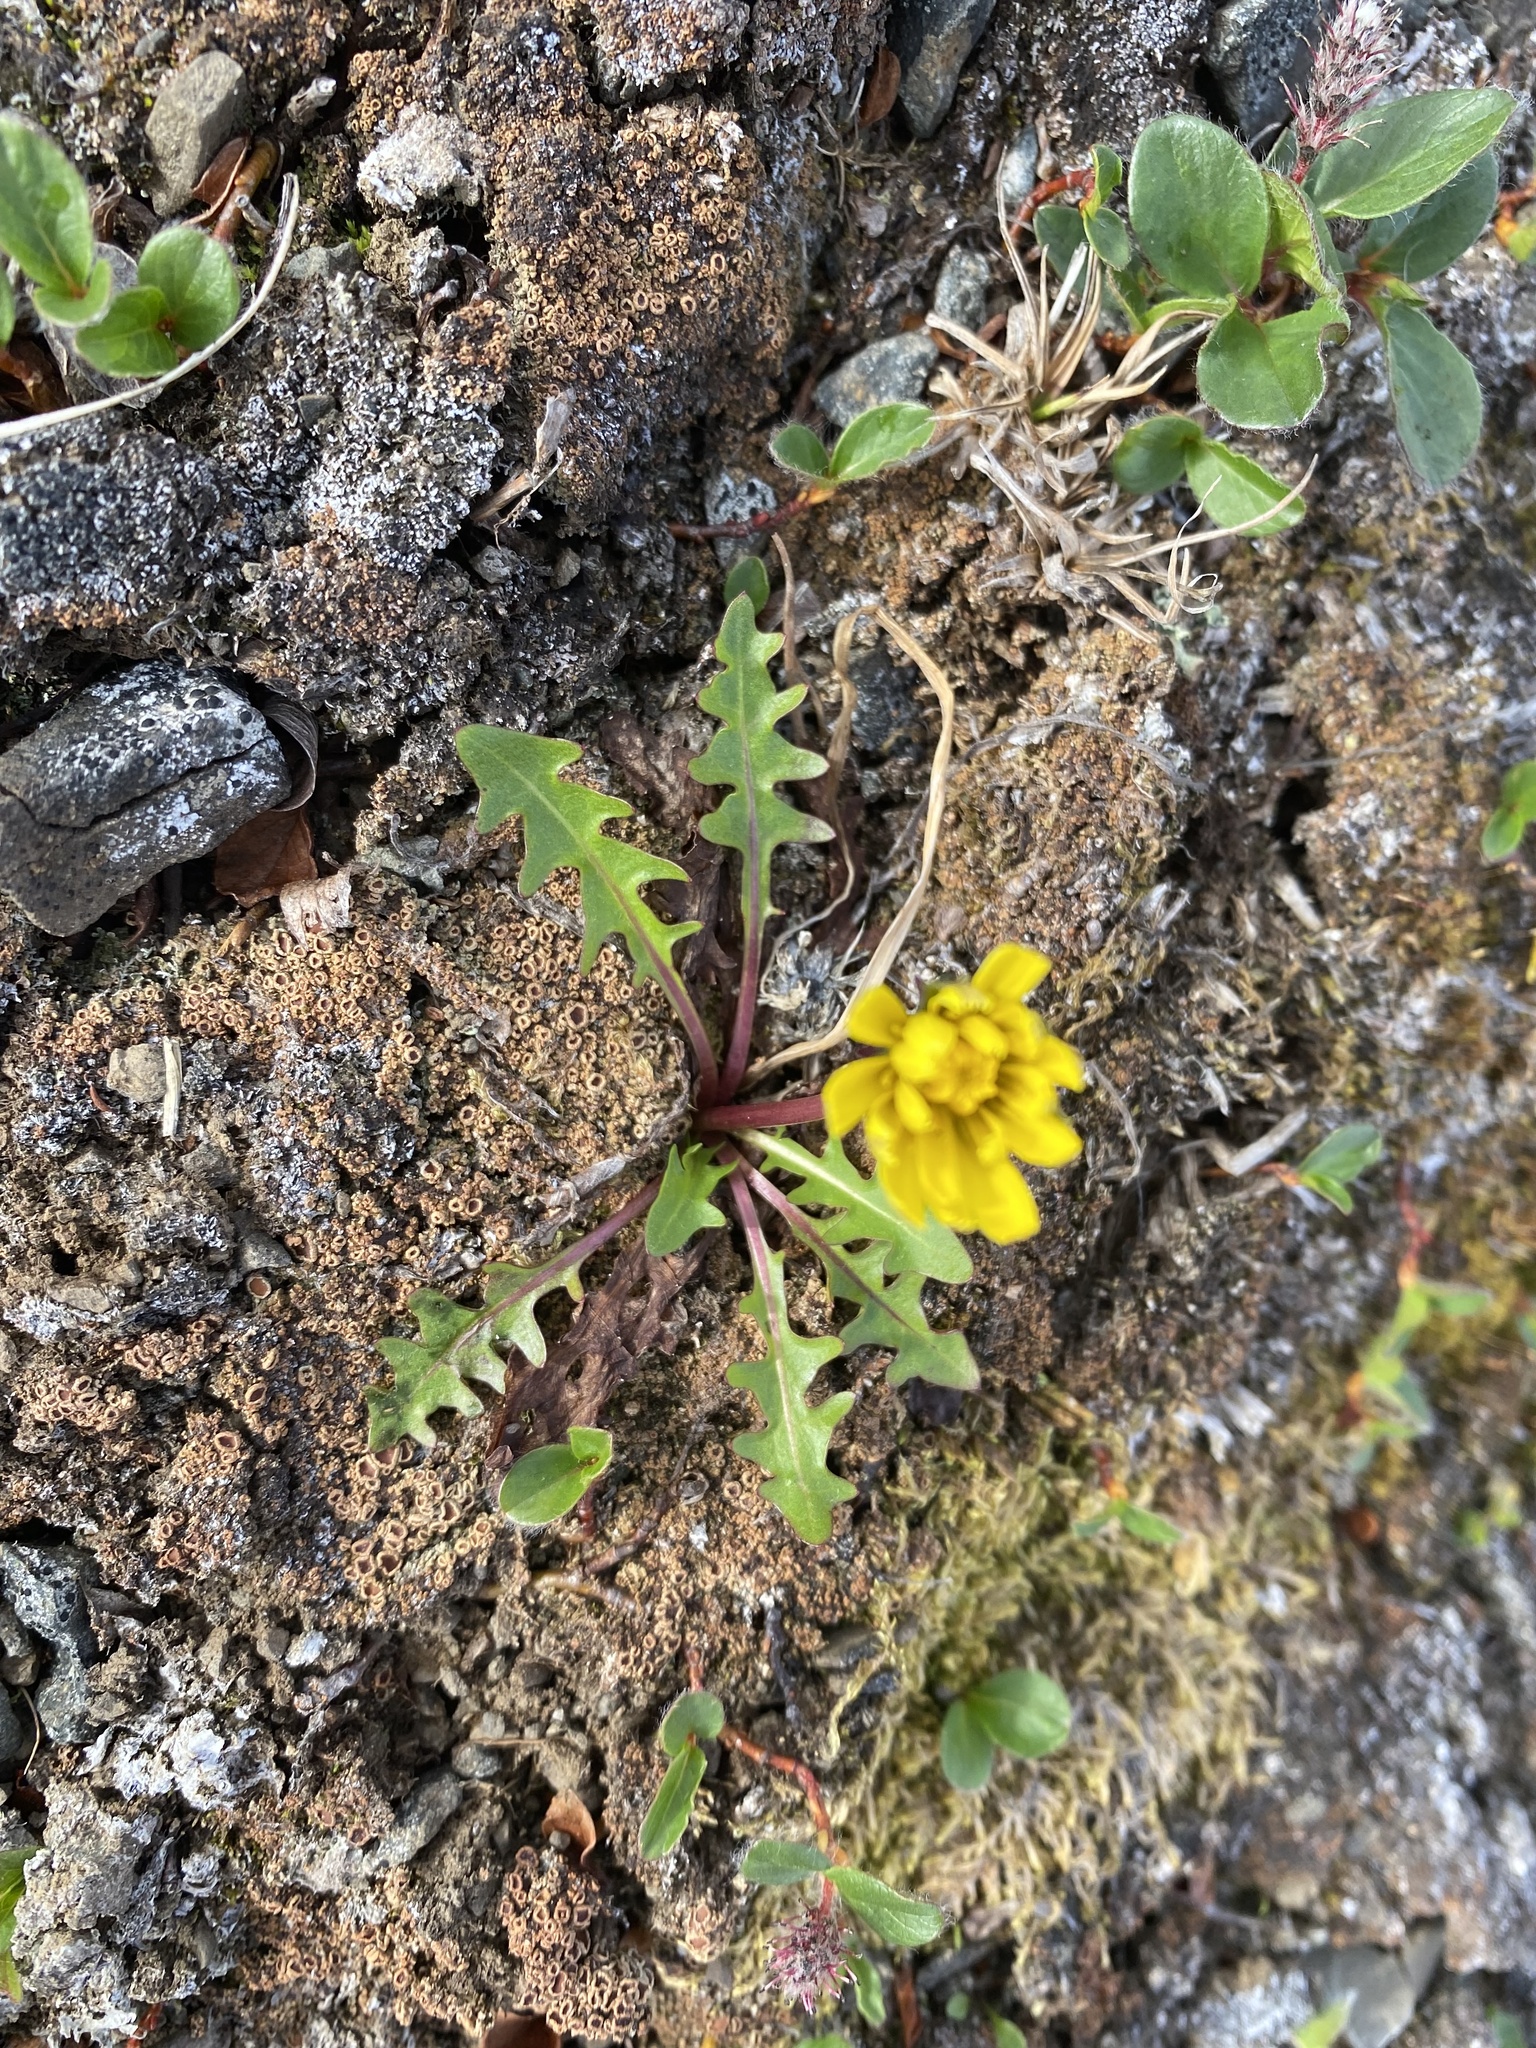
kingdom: Plantae
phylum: Tracheophyta
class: Magnoliopsida
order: Asterales
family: Asteraceae
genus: Taraxacum
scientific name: Taraxacum glabrum
